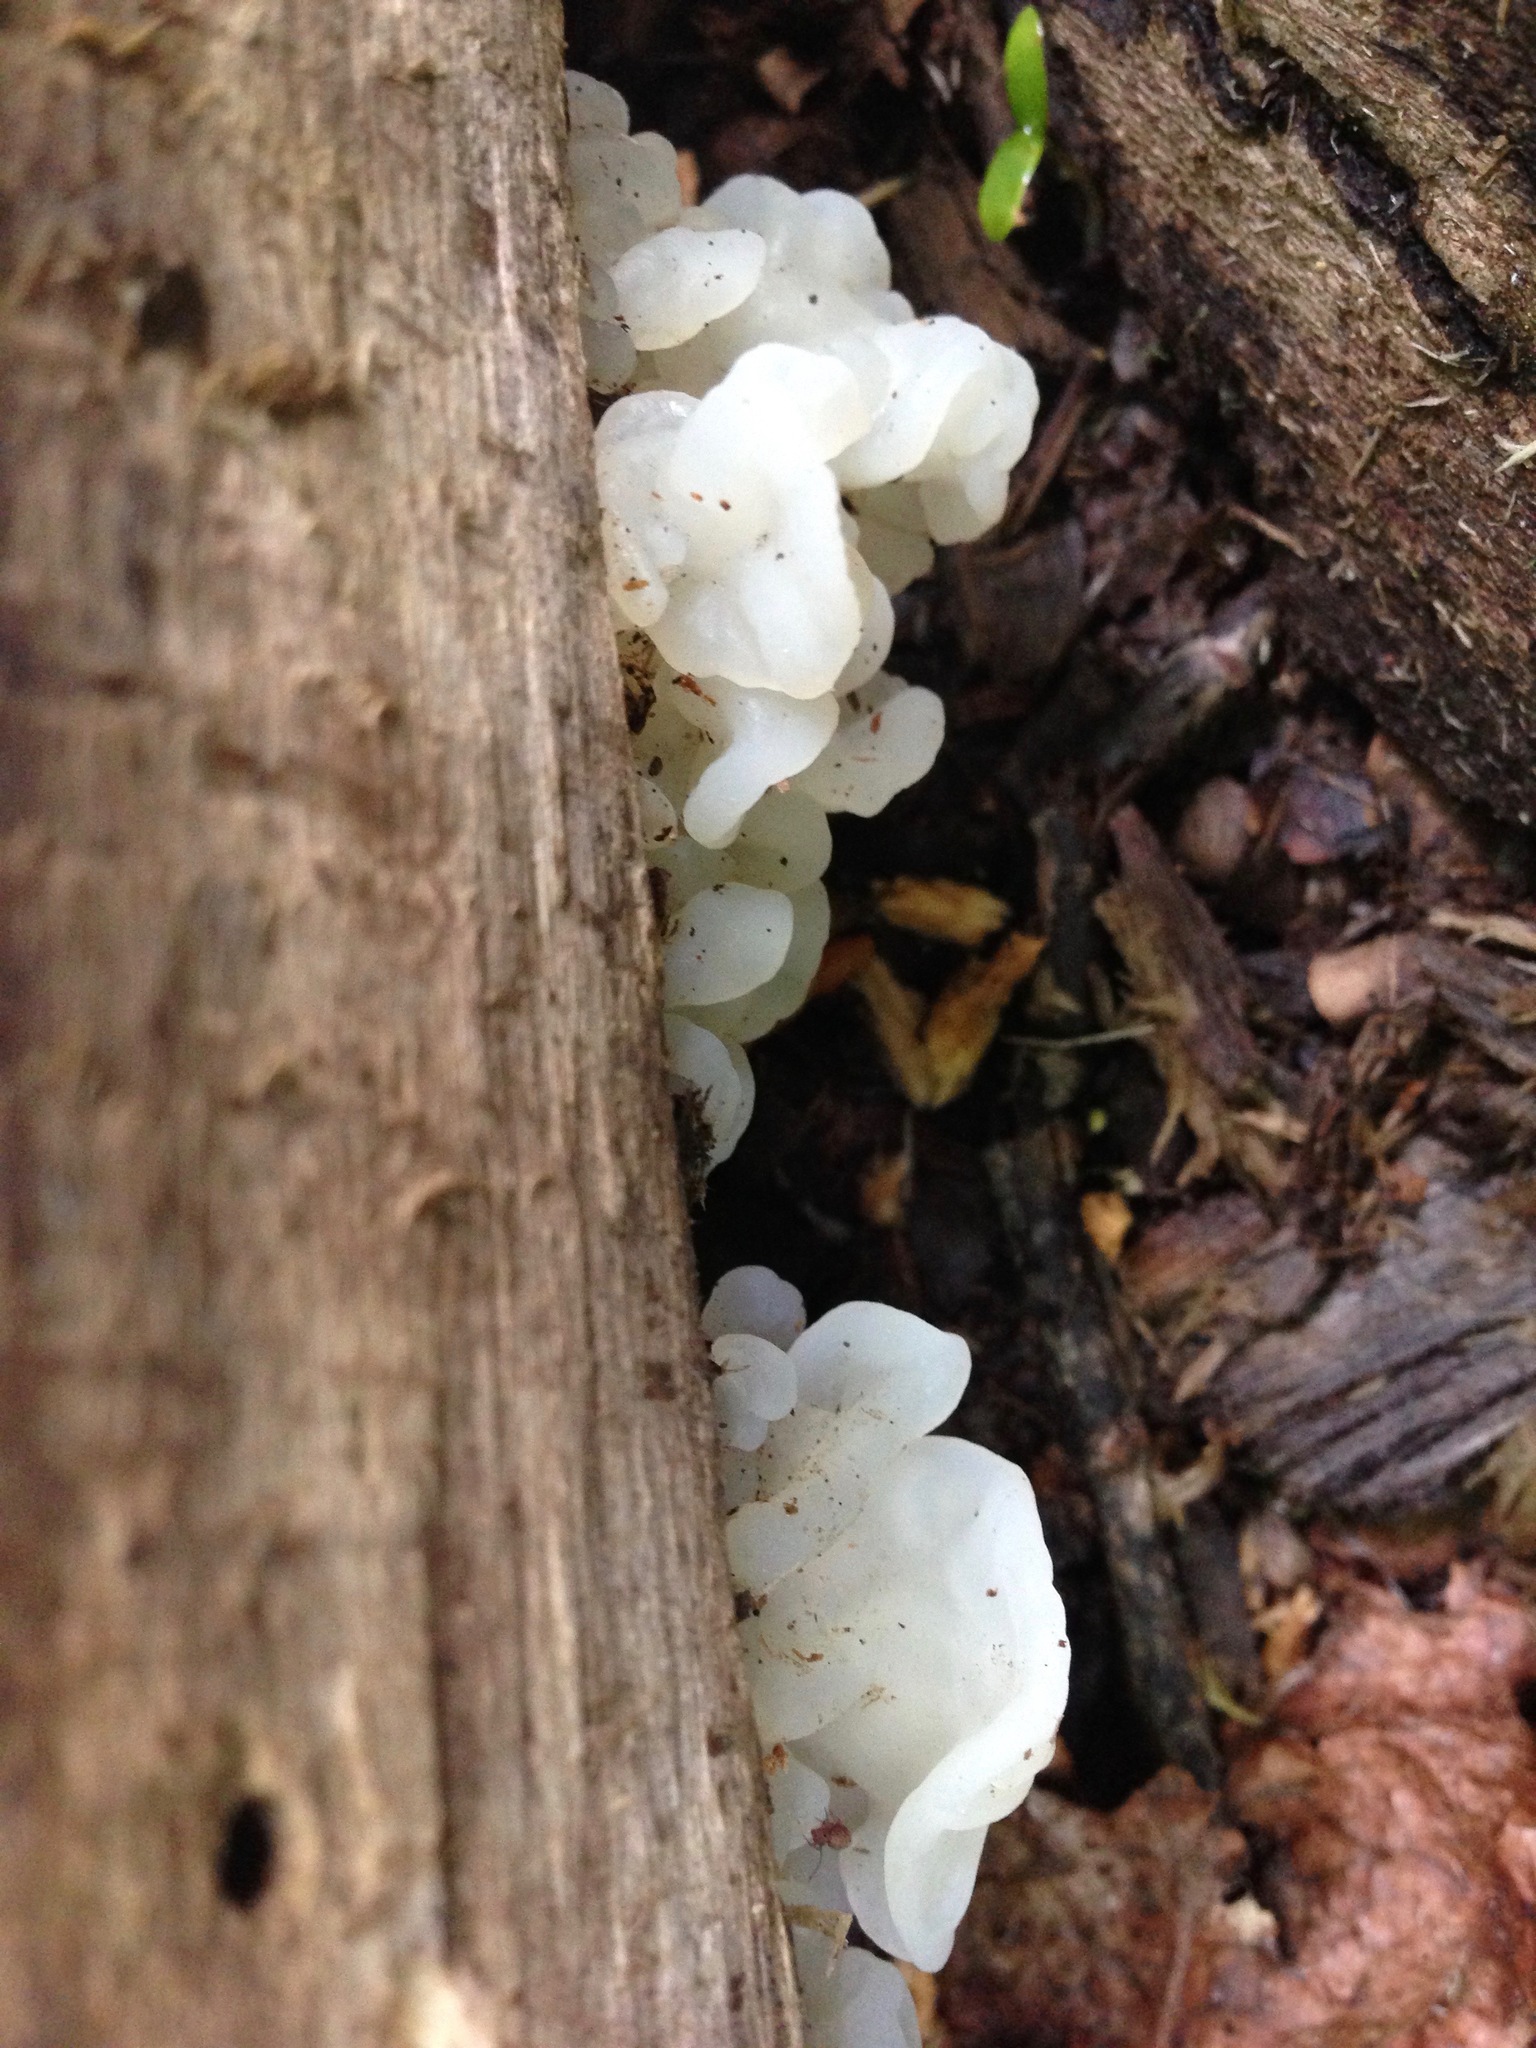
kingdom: Fungi
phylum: Basidiomycota
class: Agaricomycetes
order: Auriculariales
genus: Ductifera
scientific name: Ductifera pululahuana
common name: White jelly fungus
